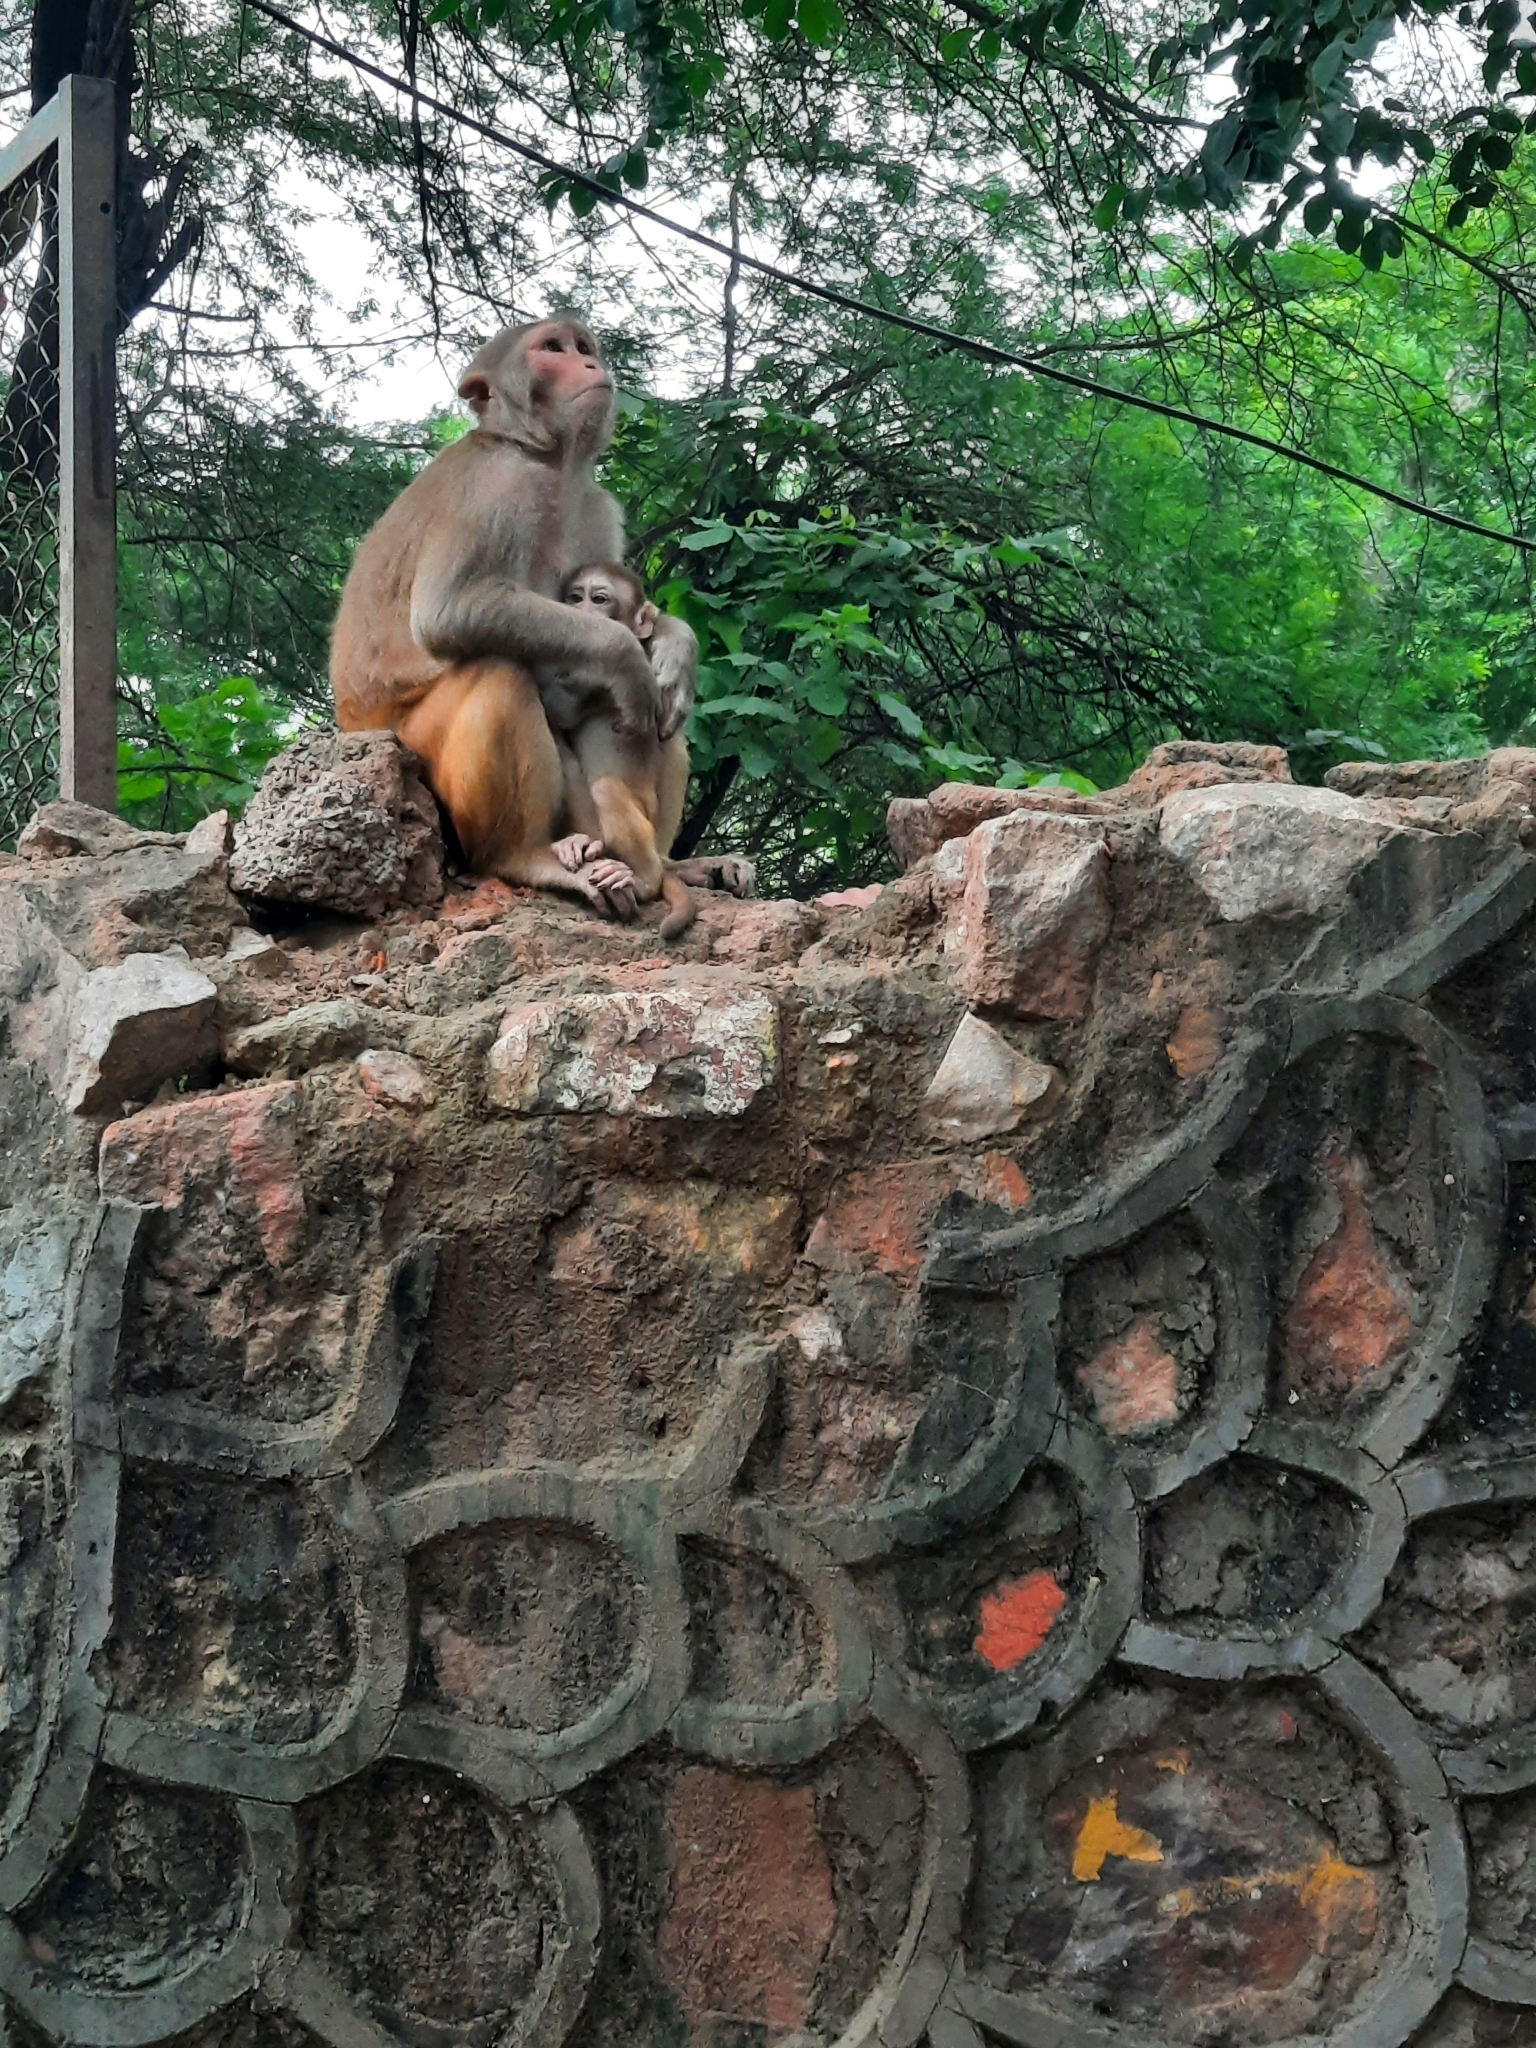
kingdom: Animalia
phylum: Chordata
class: Mammalia
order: Primates
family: Cercopithecidae
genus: Macaca
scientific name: Macaca mulatta
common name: Rhesus monkey
